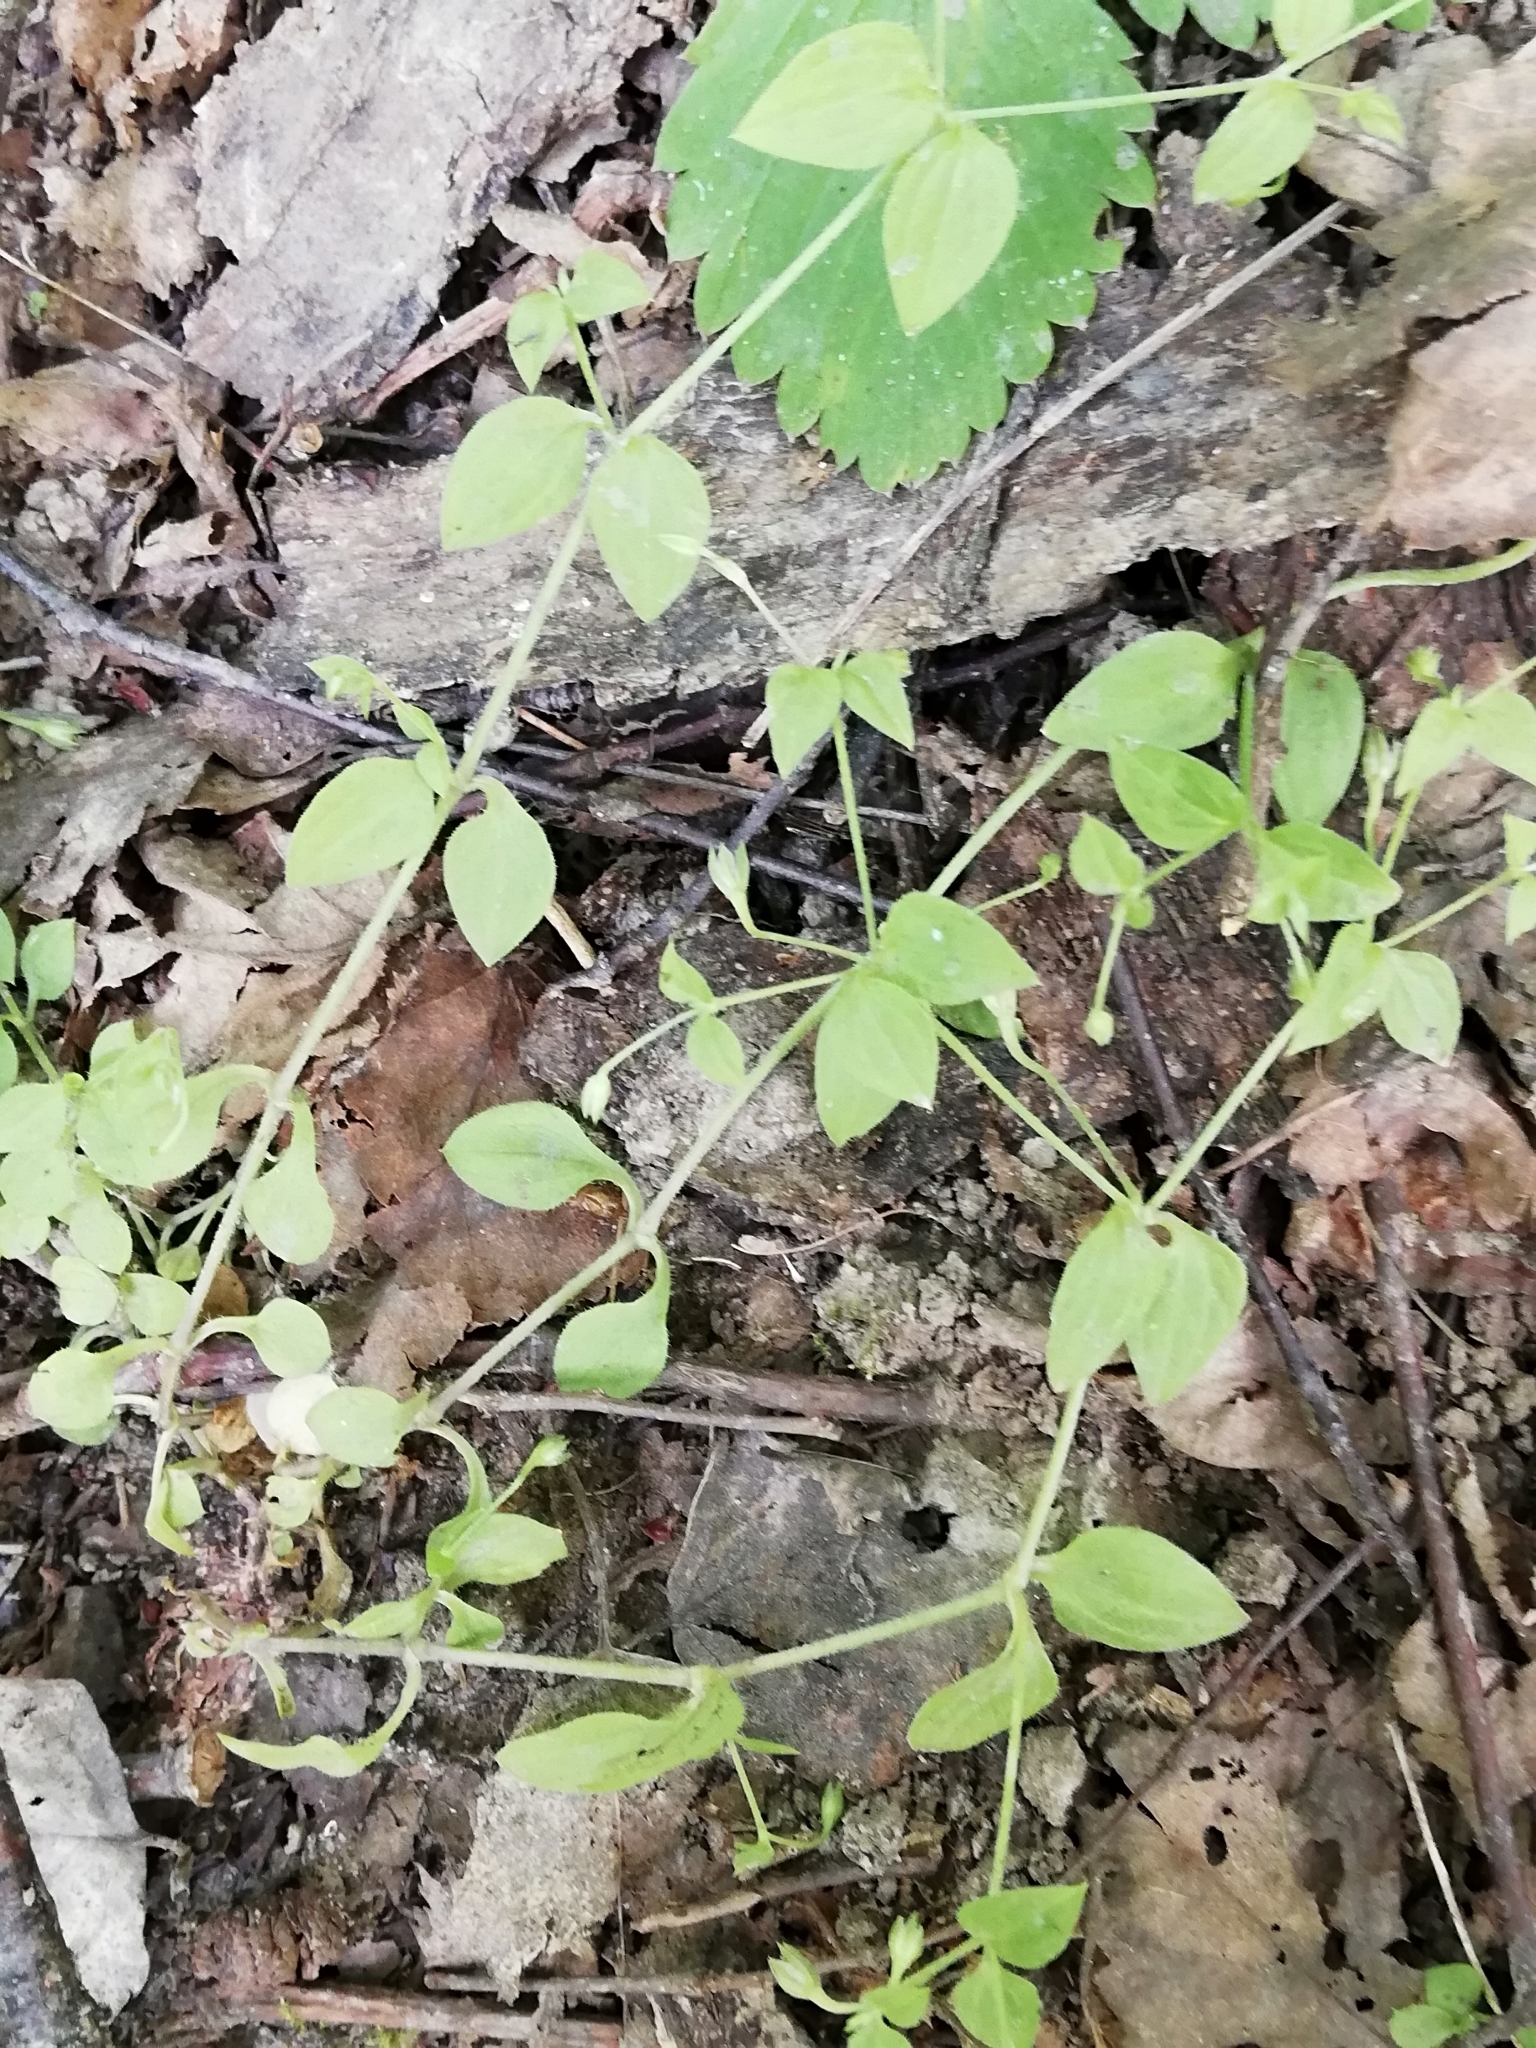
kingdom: Plantae
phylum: Tracheophyta
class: Magnoliopsida
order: Caryophyllales
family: Caryophyllaceae
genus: Moehringia
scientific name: Moehringia trinervia
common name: Three-nerved sandwort
